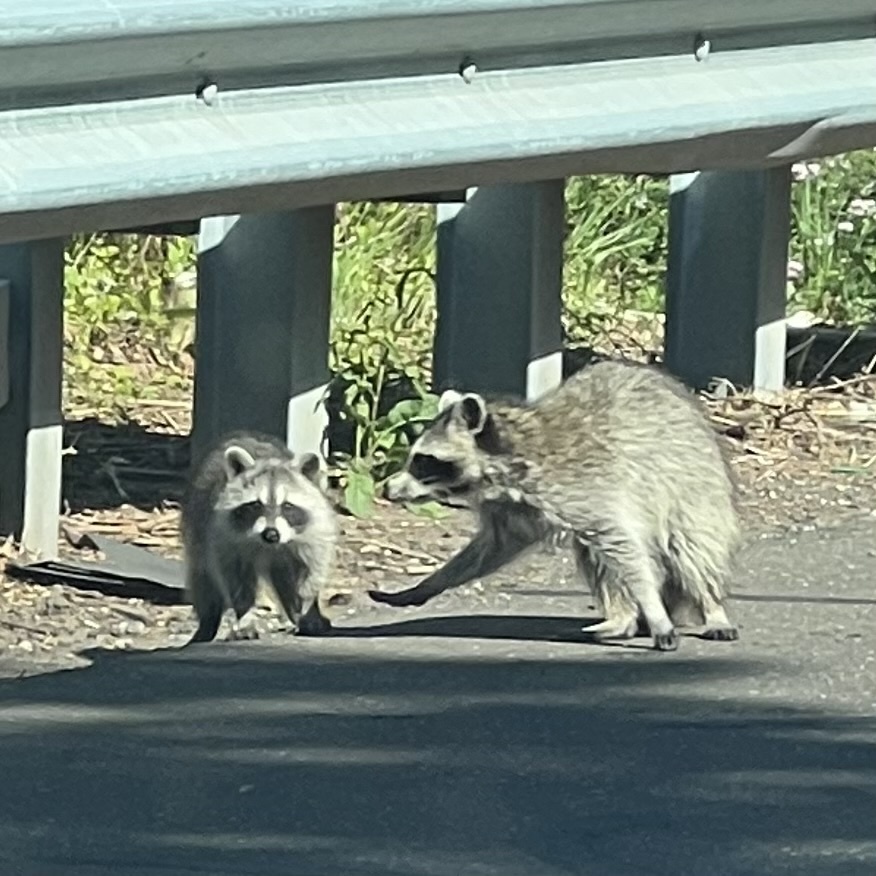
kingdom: Animalia
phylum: Chordata
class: Mammalia
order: Carnivora
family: Procyonidae
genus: Procyon
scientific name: Procyon lotor
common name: Raccoon
